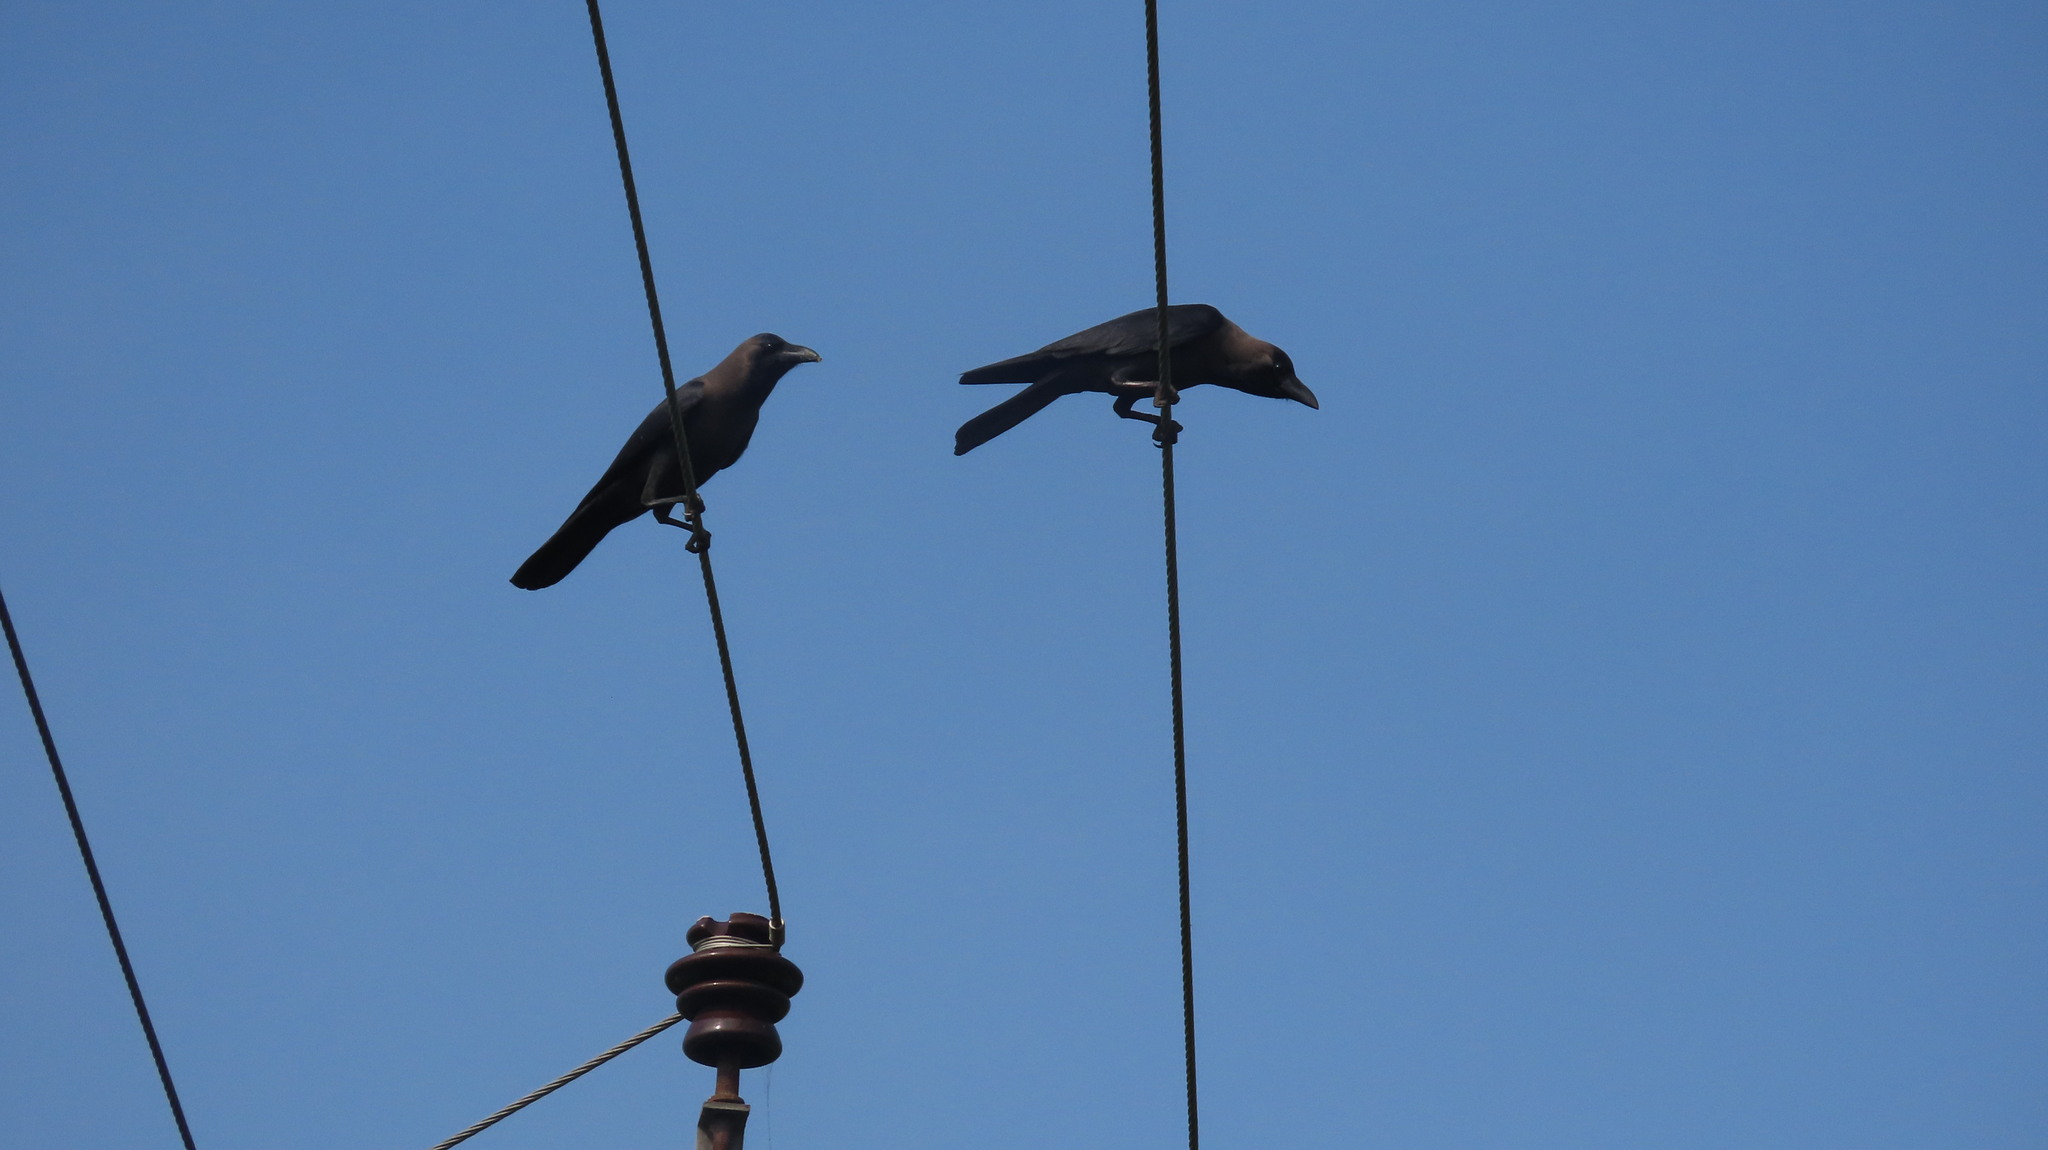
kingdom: Animalia
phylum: Chordata
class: Aves
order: Passeriformes
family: Corvidae
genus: Corvus
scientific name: Corvus splendens
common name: House crow
